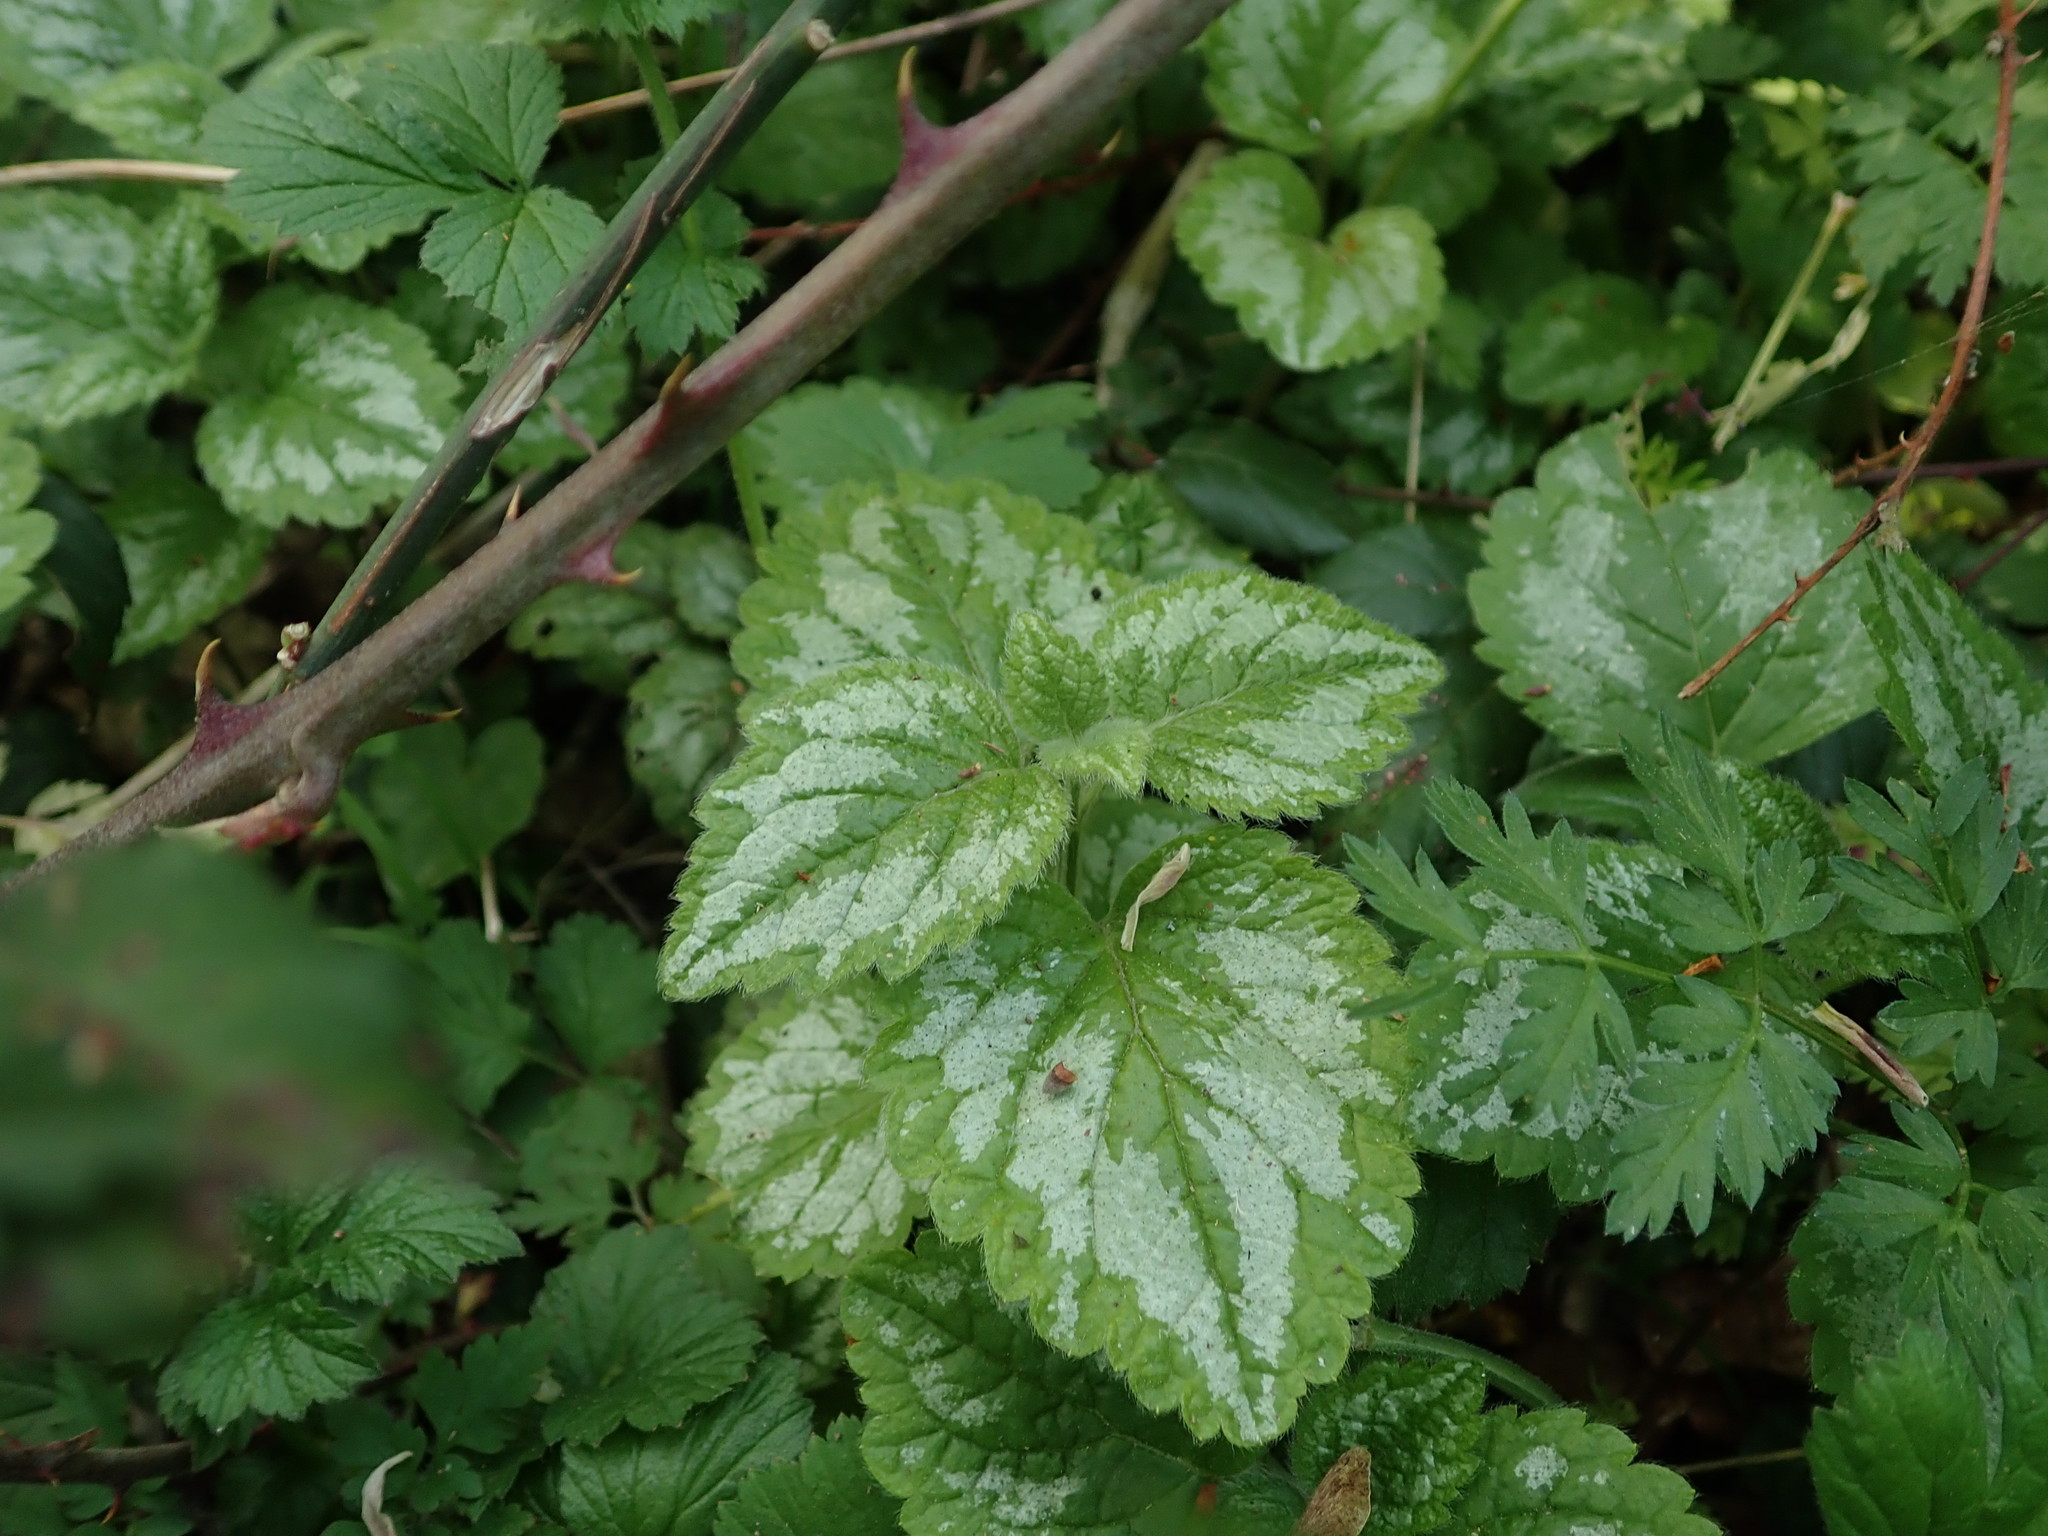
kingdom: Plantae
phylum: Tracheophyta
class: Magnoliopsida
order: Lamiales
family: Lamiaceae
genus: Lamium
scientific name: Lamium galeobdolon
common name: Yellow archangel
